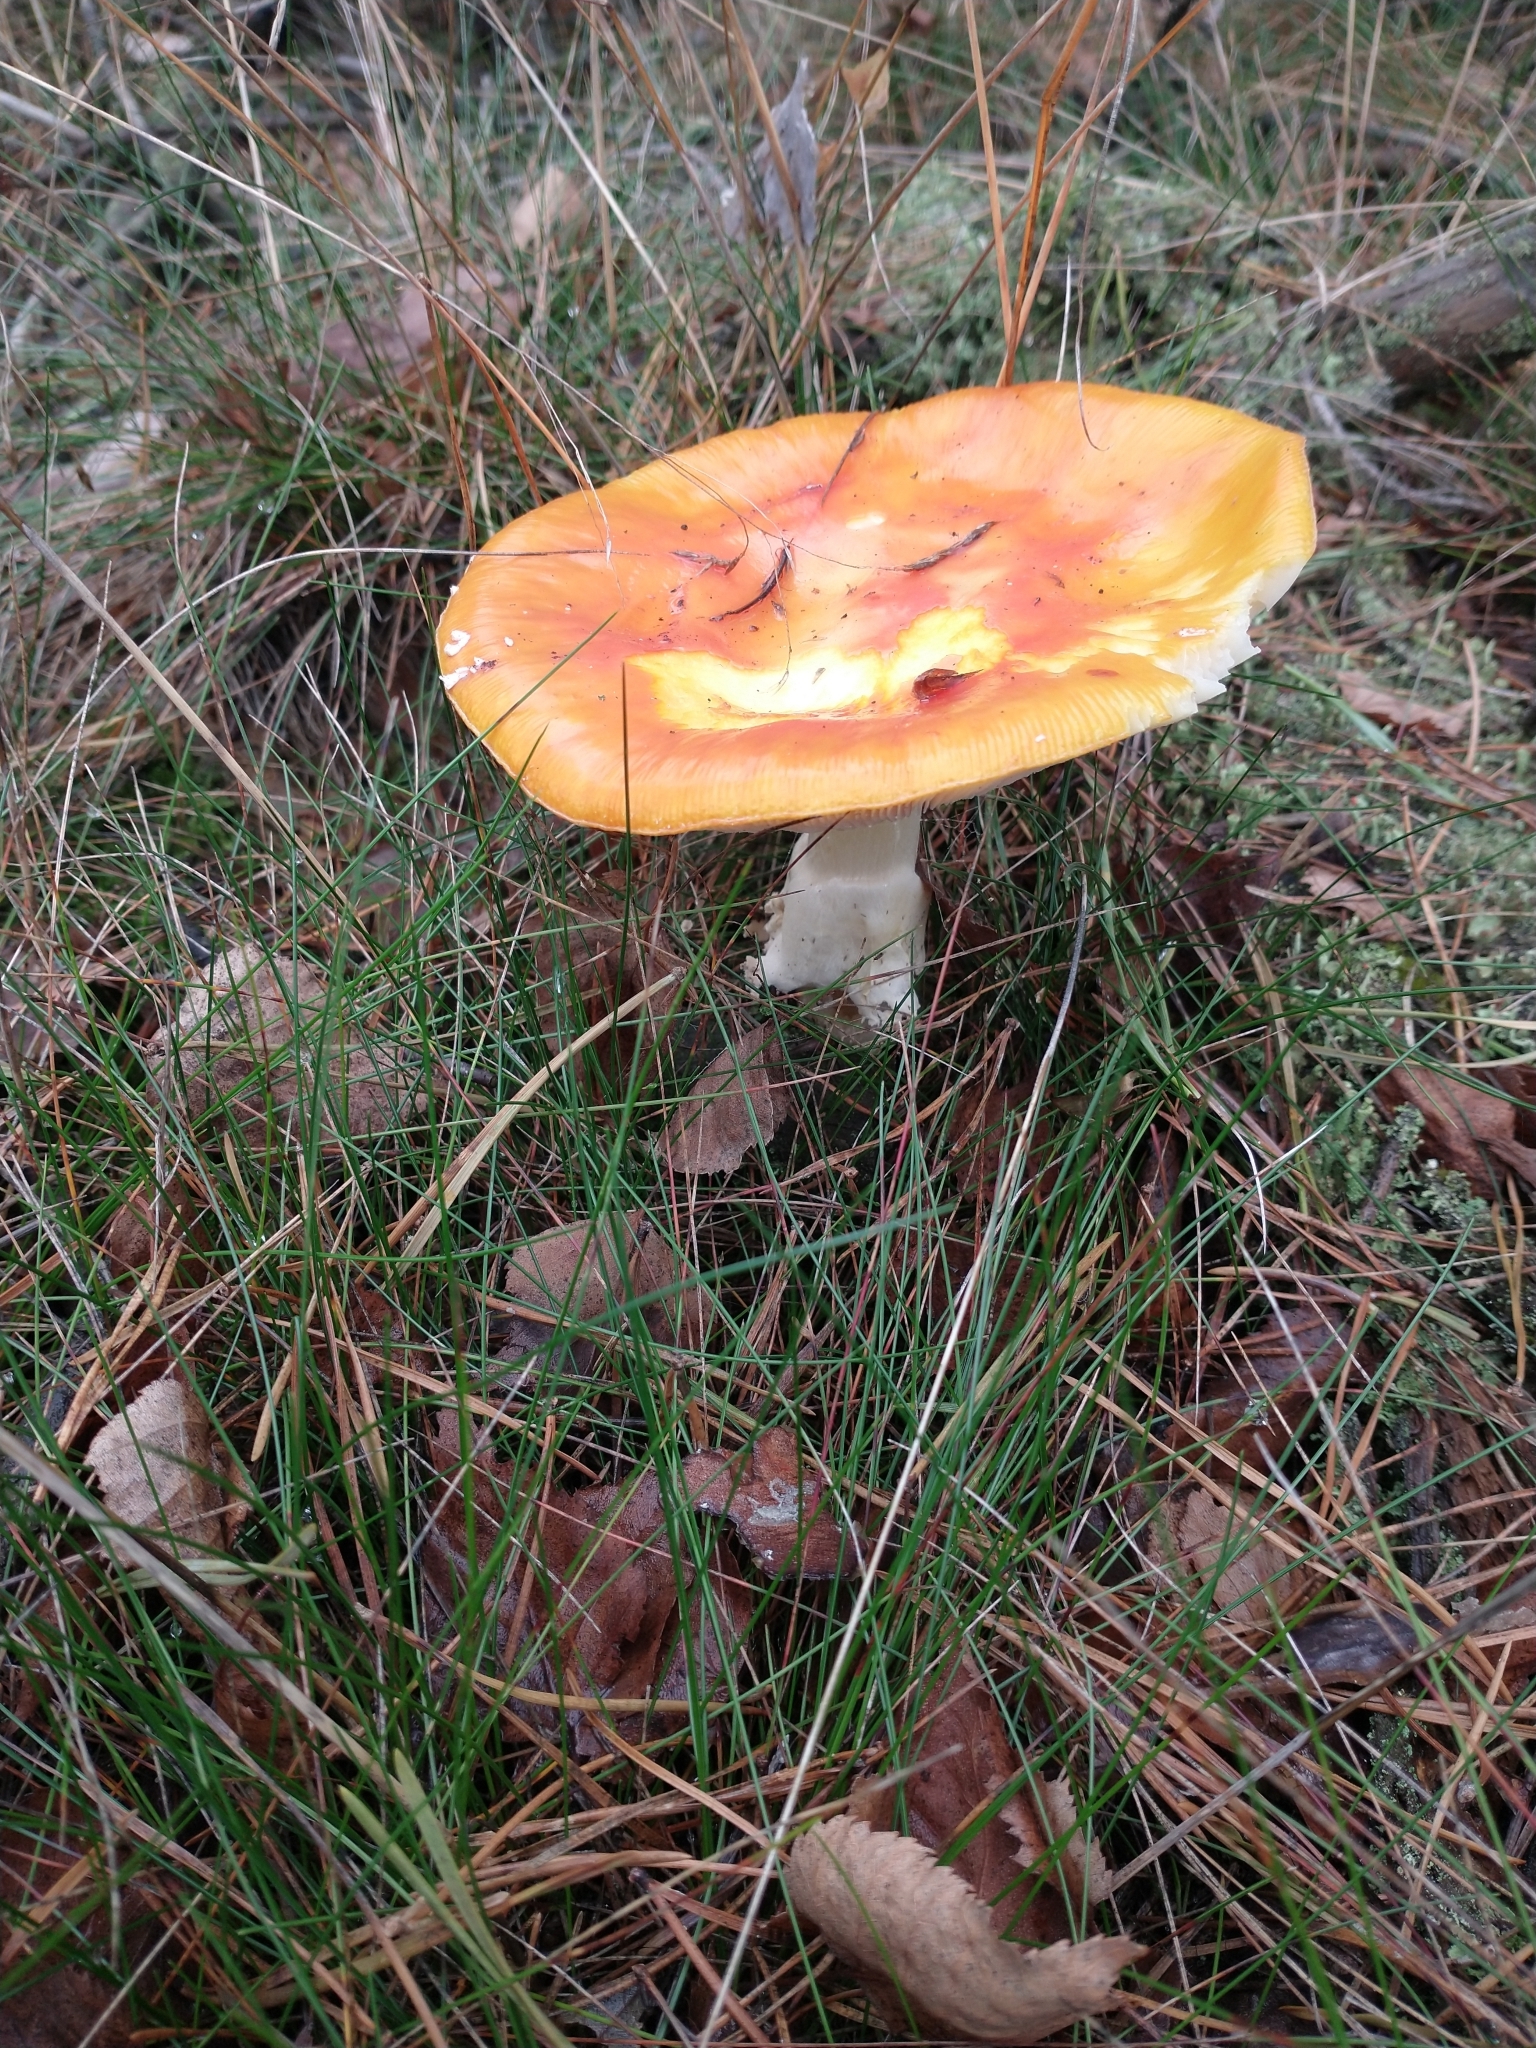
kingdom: Fungi
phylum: Basidiomycota
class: Agaricomycetes
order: Agaricales
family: Amanitaceae
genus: Amanita
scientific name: Amanita muscaria
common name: Fly agaric
